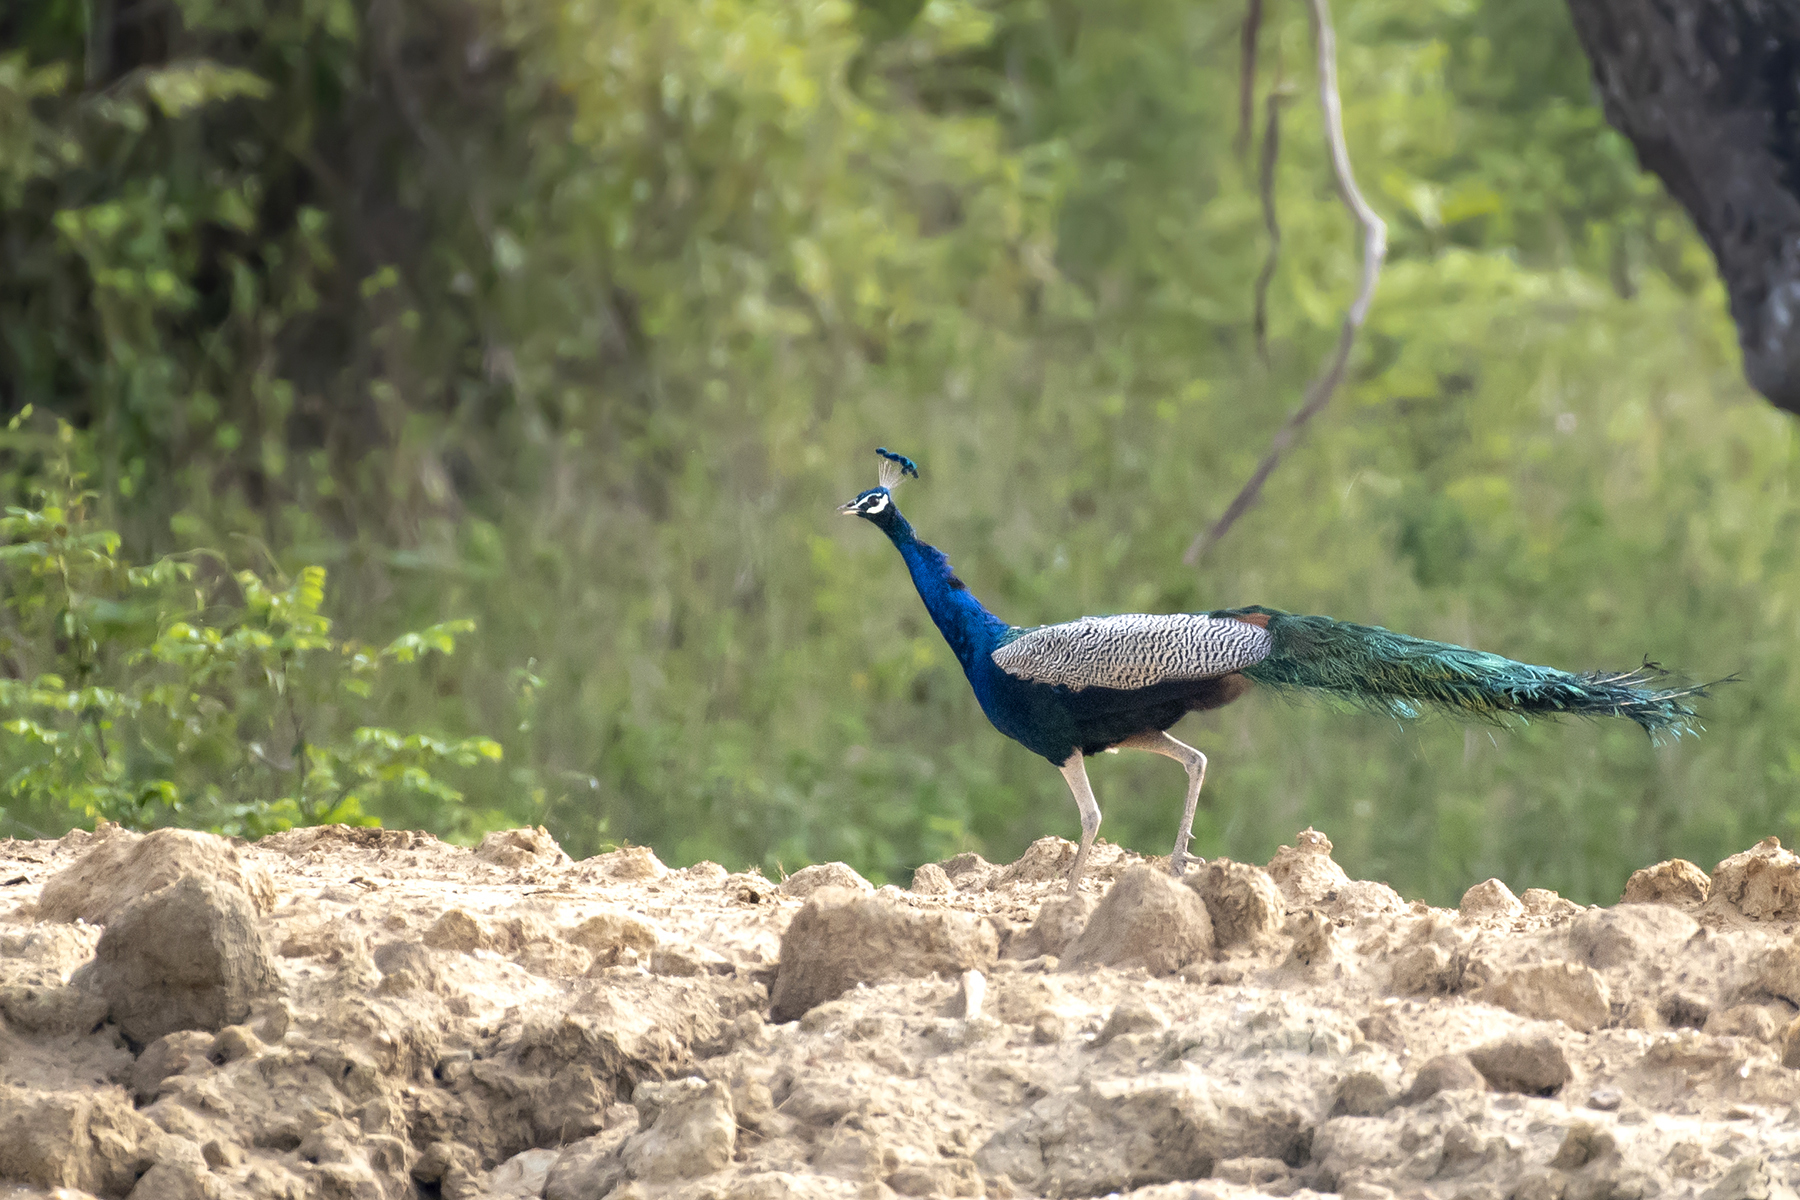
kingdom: Animalia
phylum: Chordata
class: Aves
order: Galliformes
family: Phasianidae
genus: Pavo
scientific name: Pavo cristatus
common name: Indian peafowl
